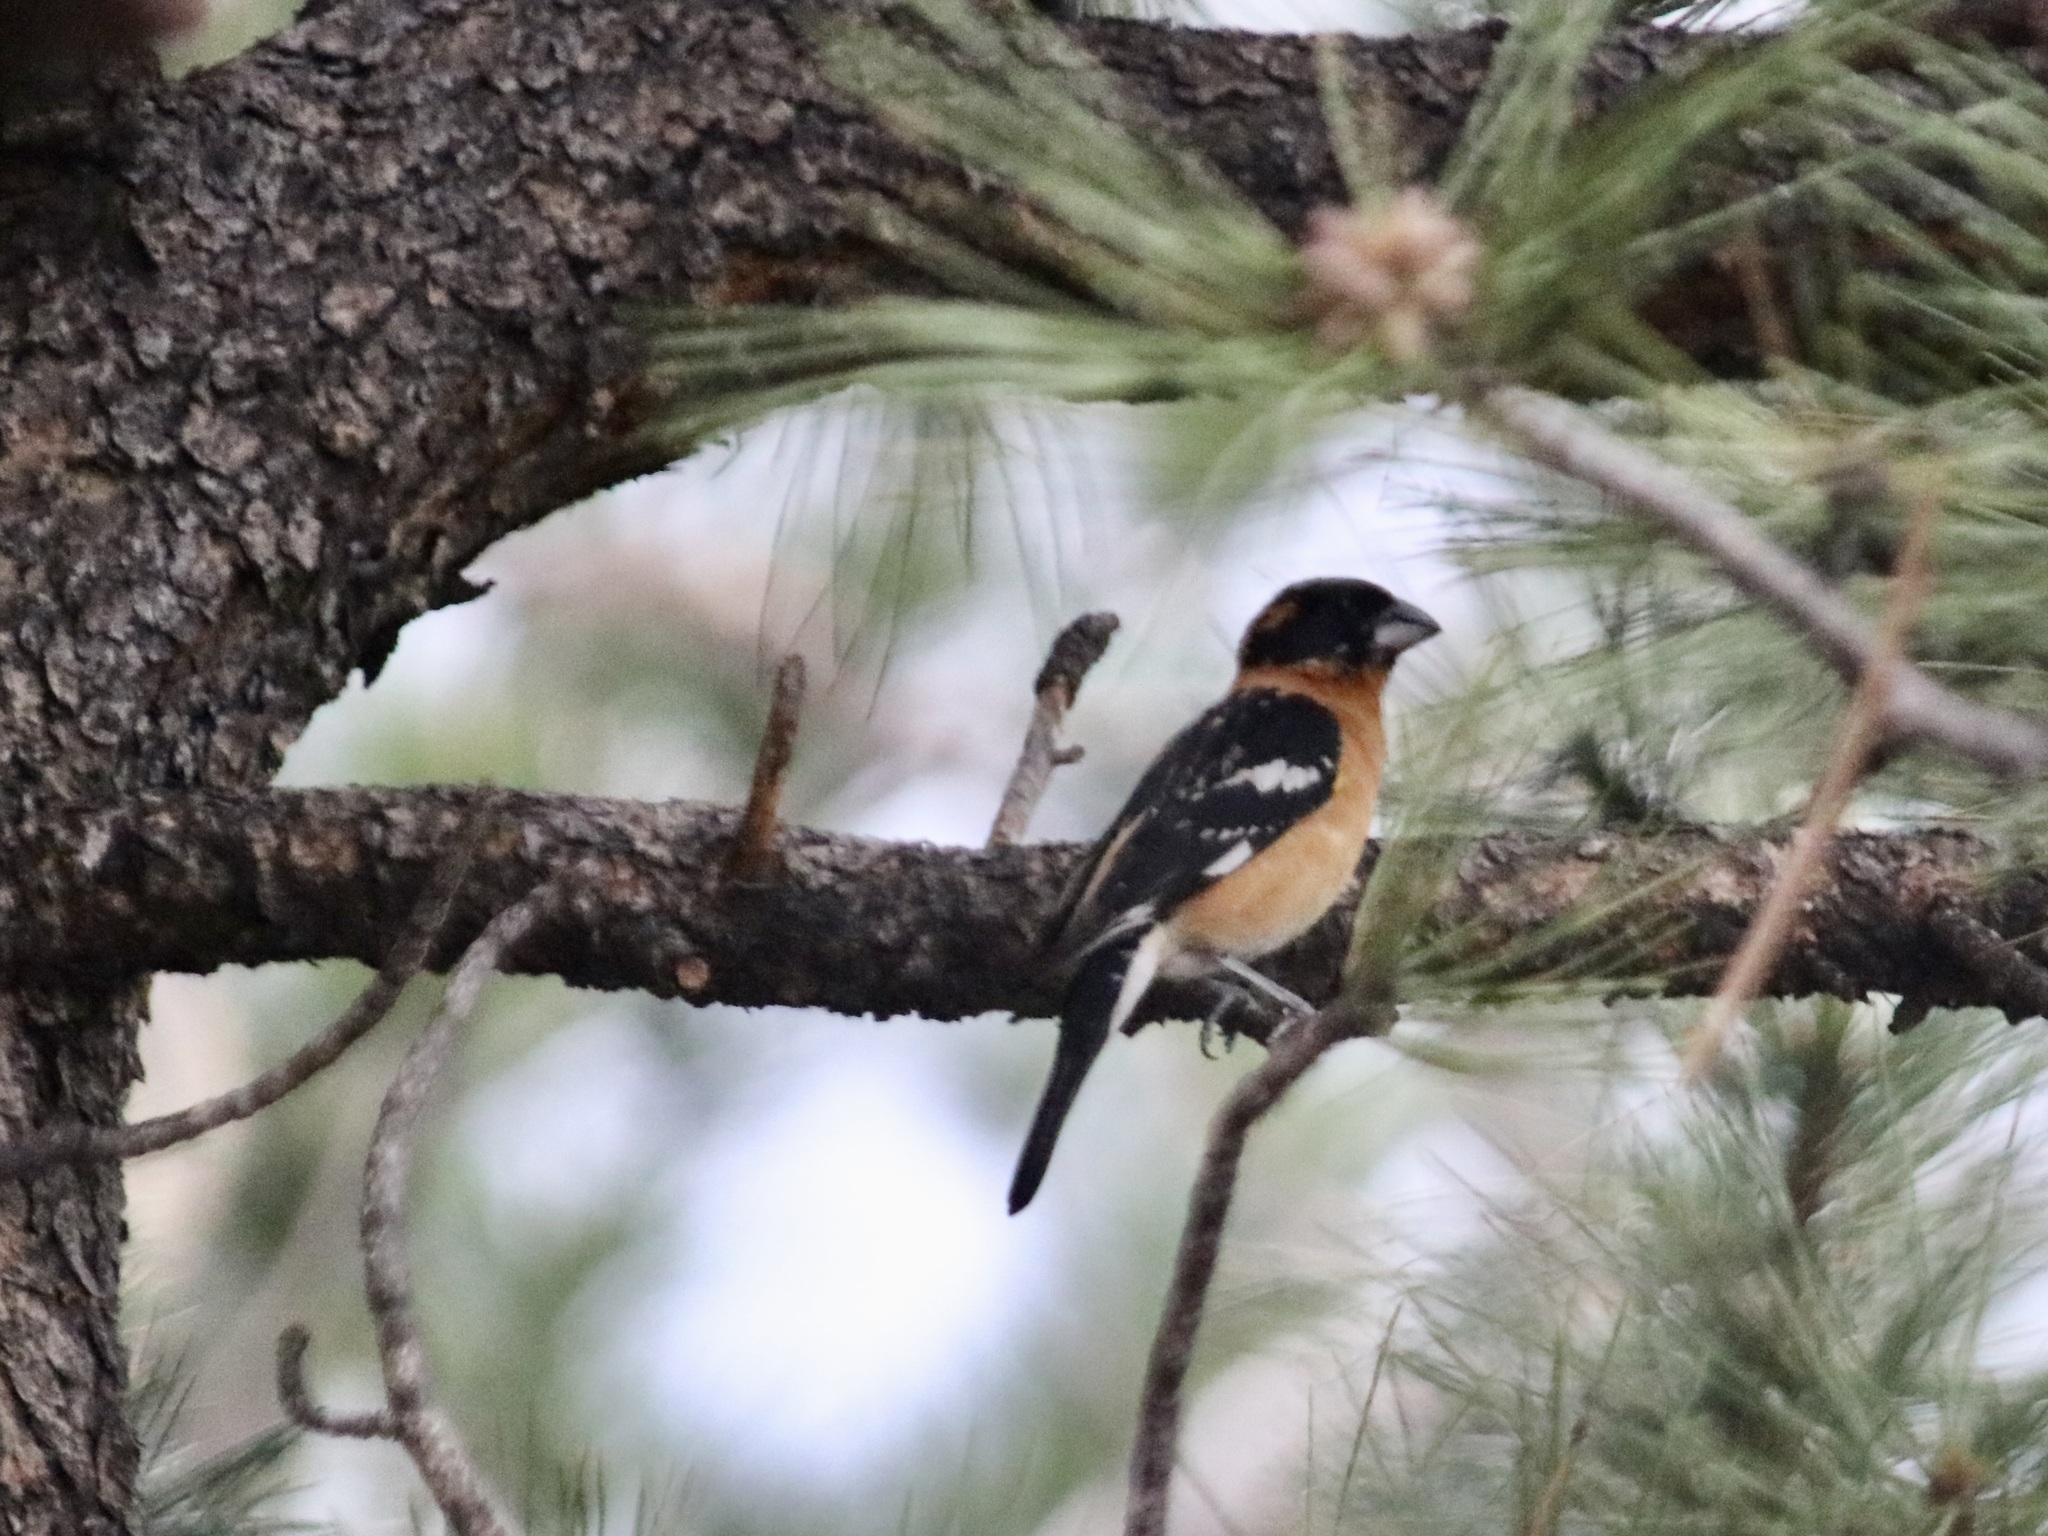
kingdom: Animalia
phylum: Chordata
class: Aves
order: Passeriformes
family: Cardinalidae
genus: Pheucticus
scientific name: Pheucticus melanocephalus
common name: Black-headed grosbeak
